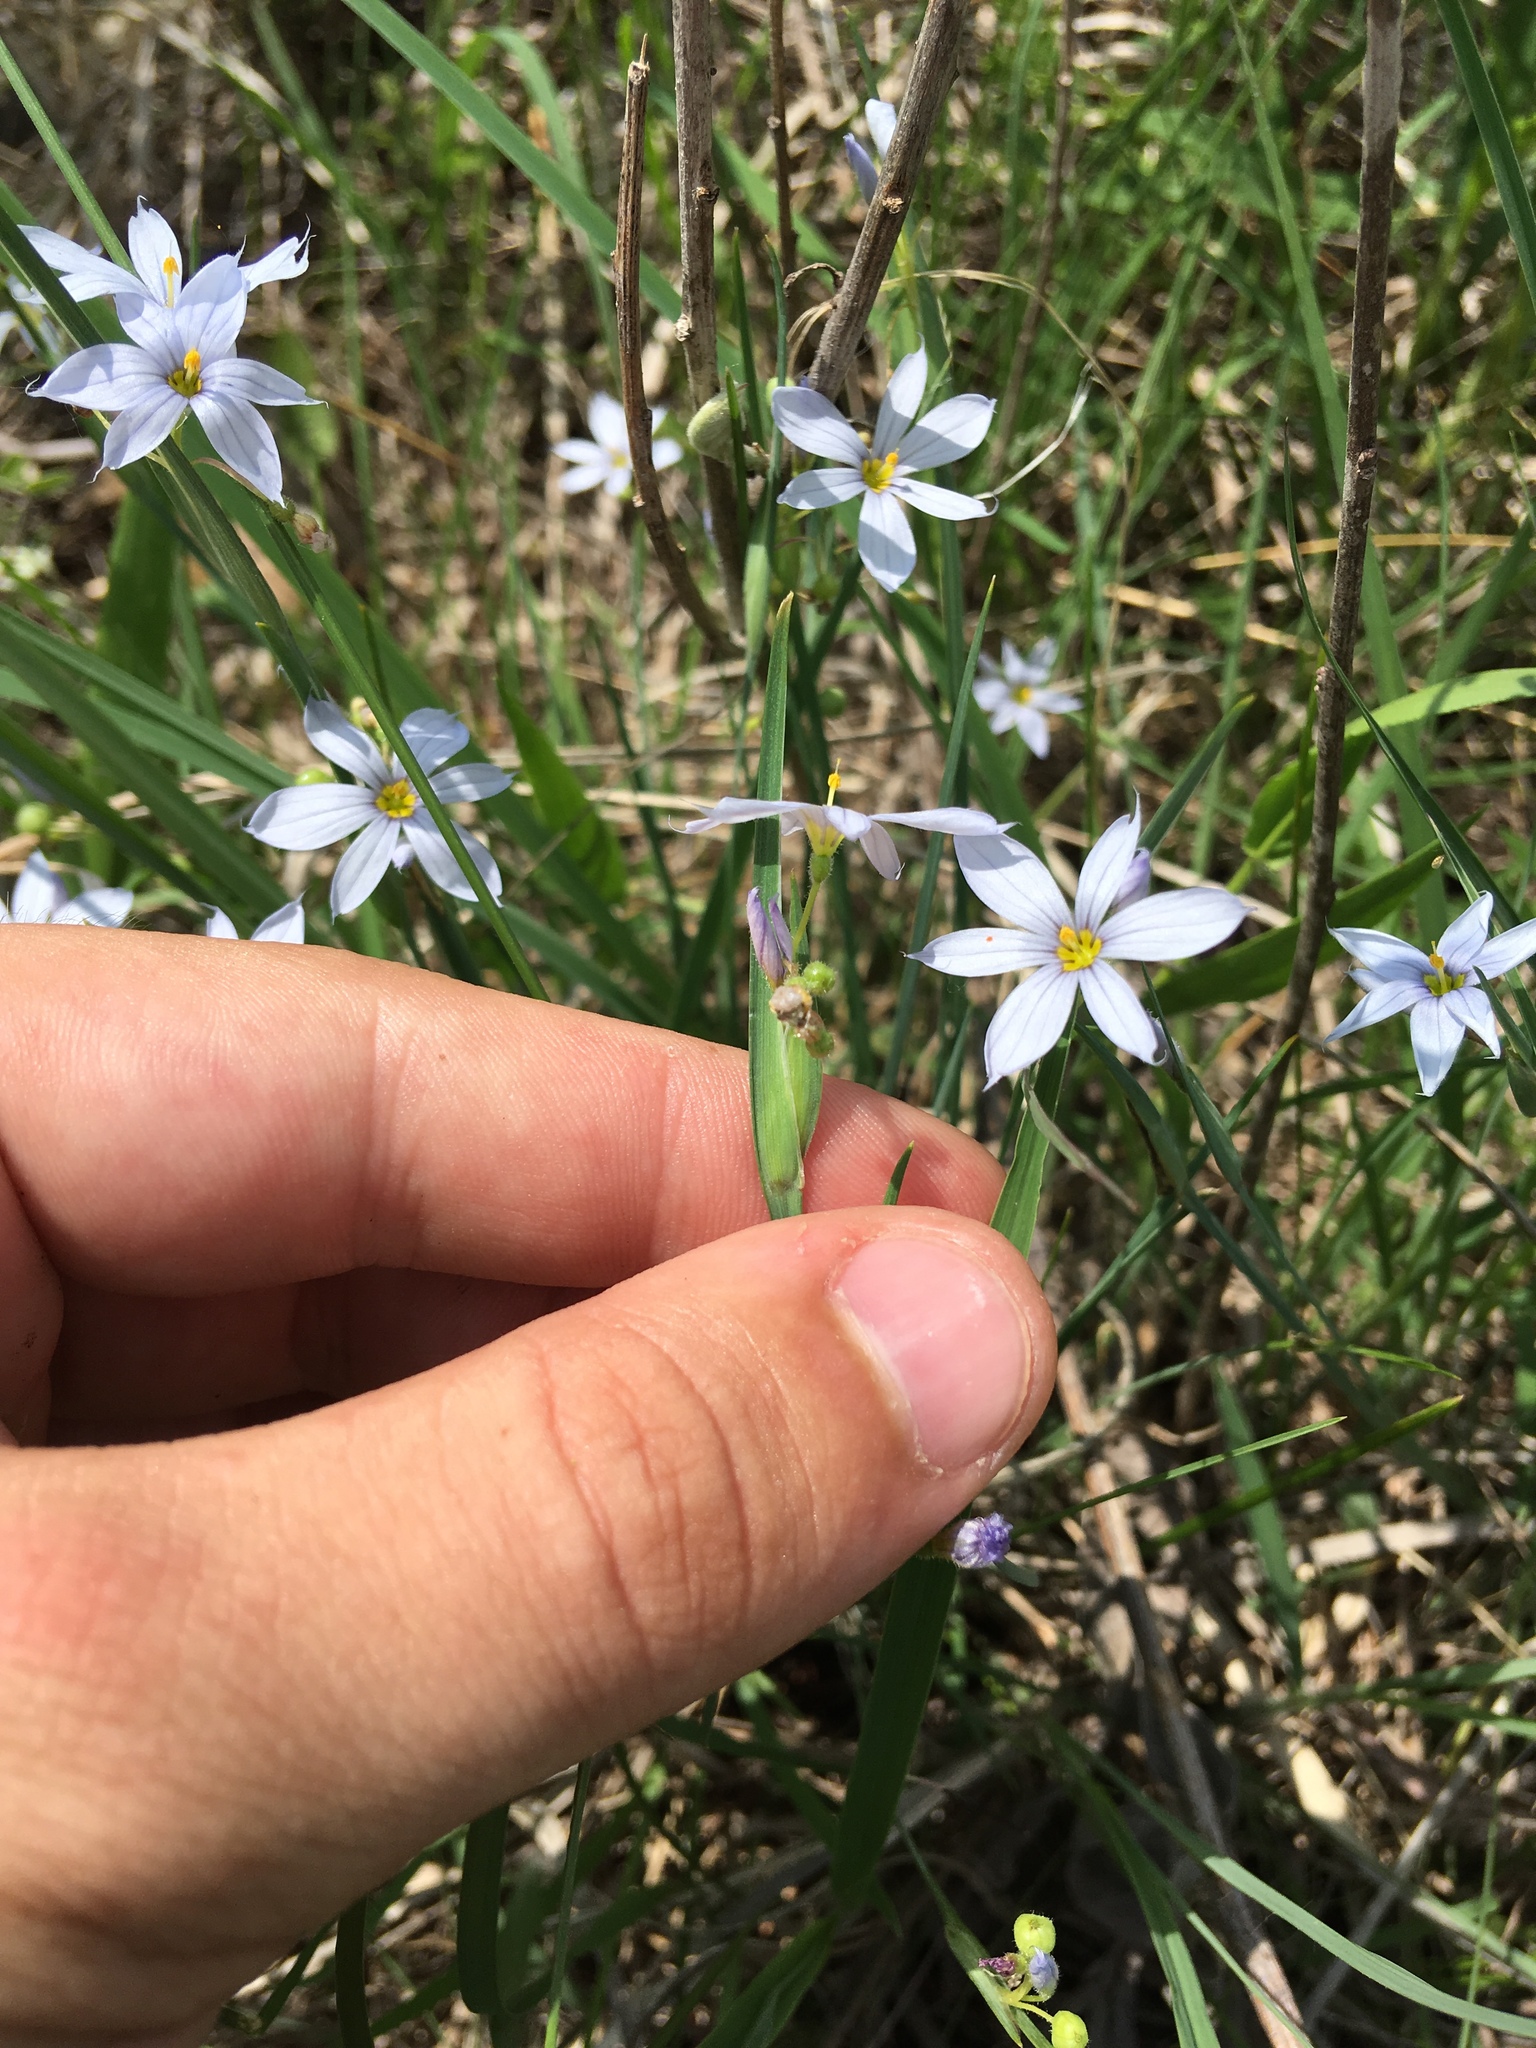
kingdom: Plantae
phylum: Tracheophyta
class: Liliopsida
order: Asparagales
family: Iridaceae
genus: Sisyrinchium
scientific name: Sisyrinchium campestre
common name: Prairie blue-eyed-grass
